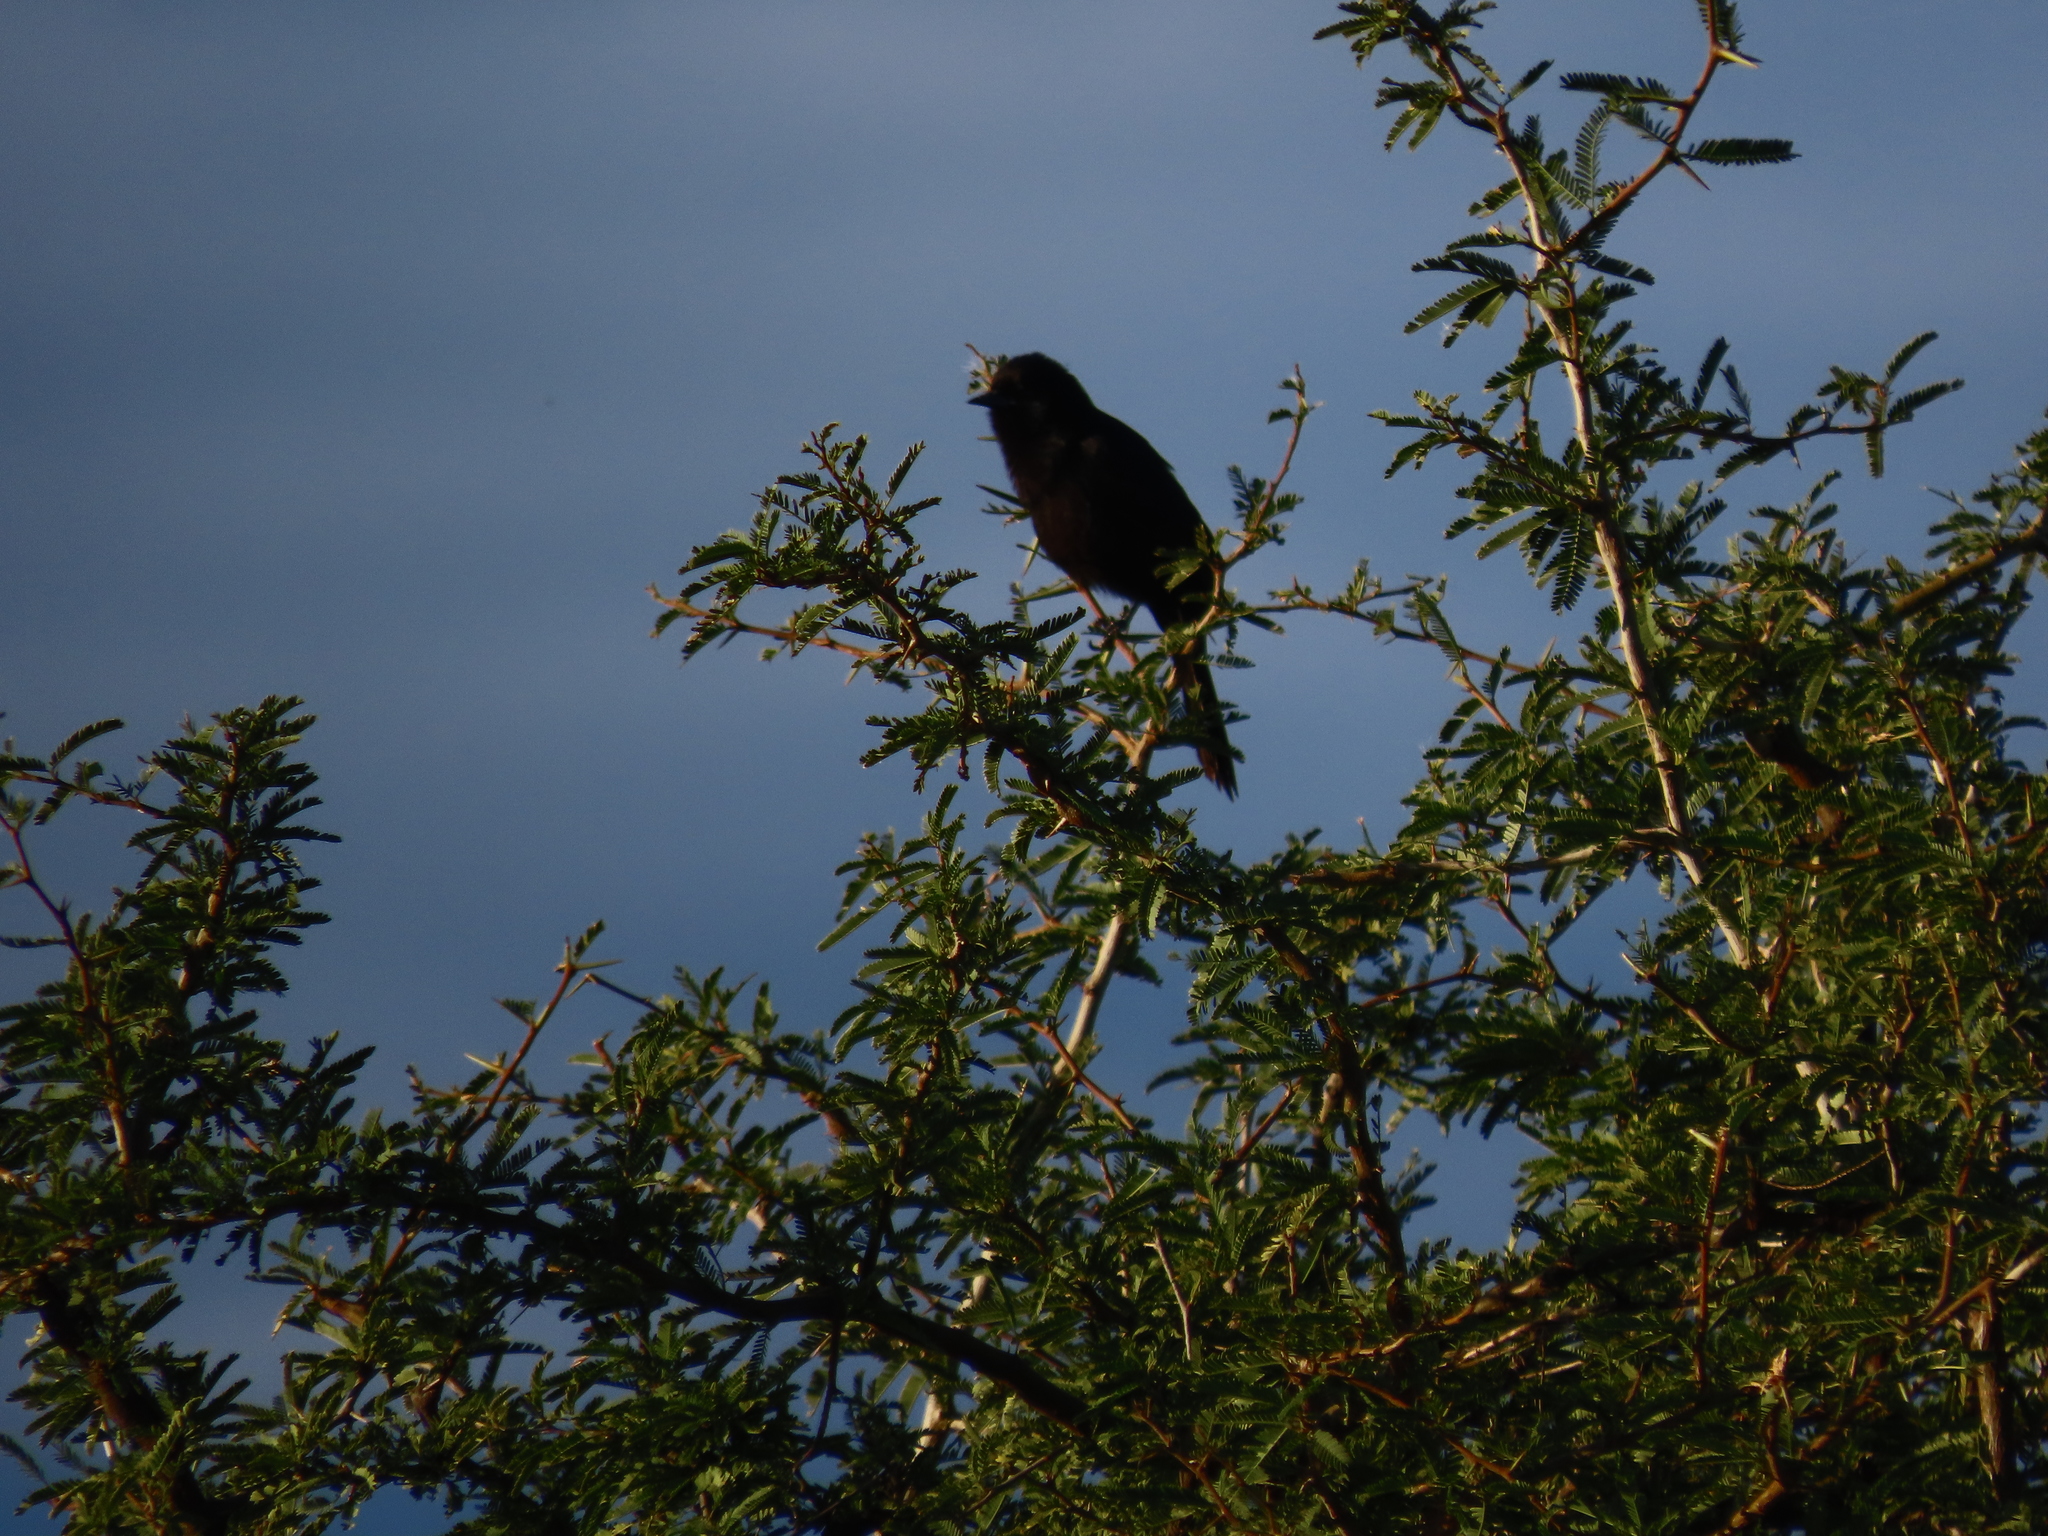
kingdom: Animalia
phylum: Chordata
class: Aves
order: Passeriformes
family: Icteridae
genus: Icterus
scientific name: Icterus cayanensis
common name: Epaulet oriole
